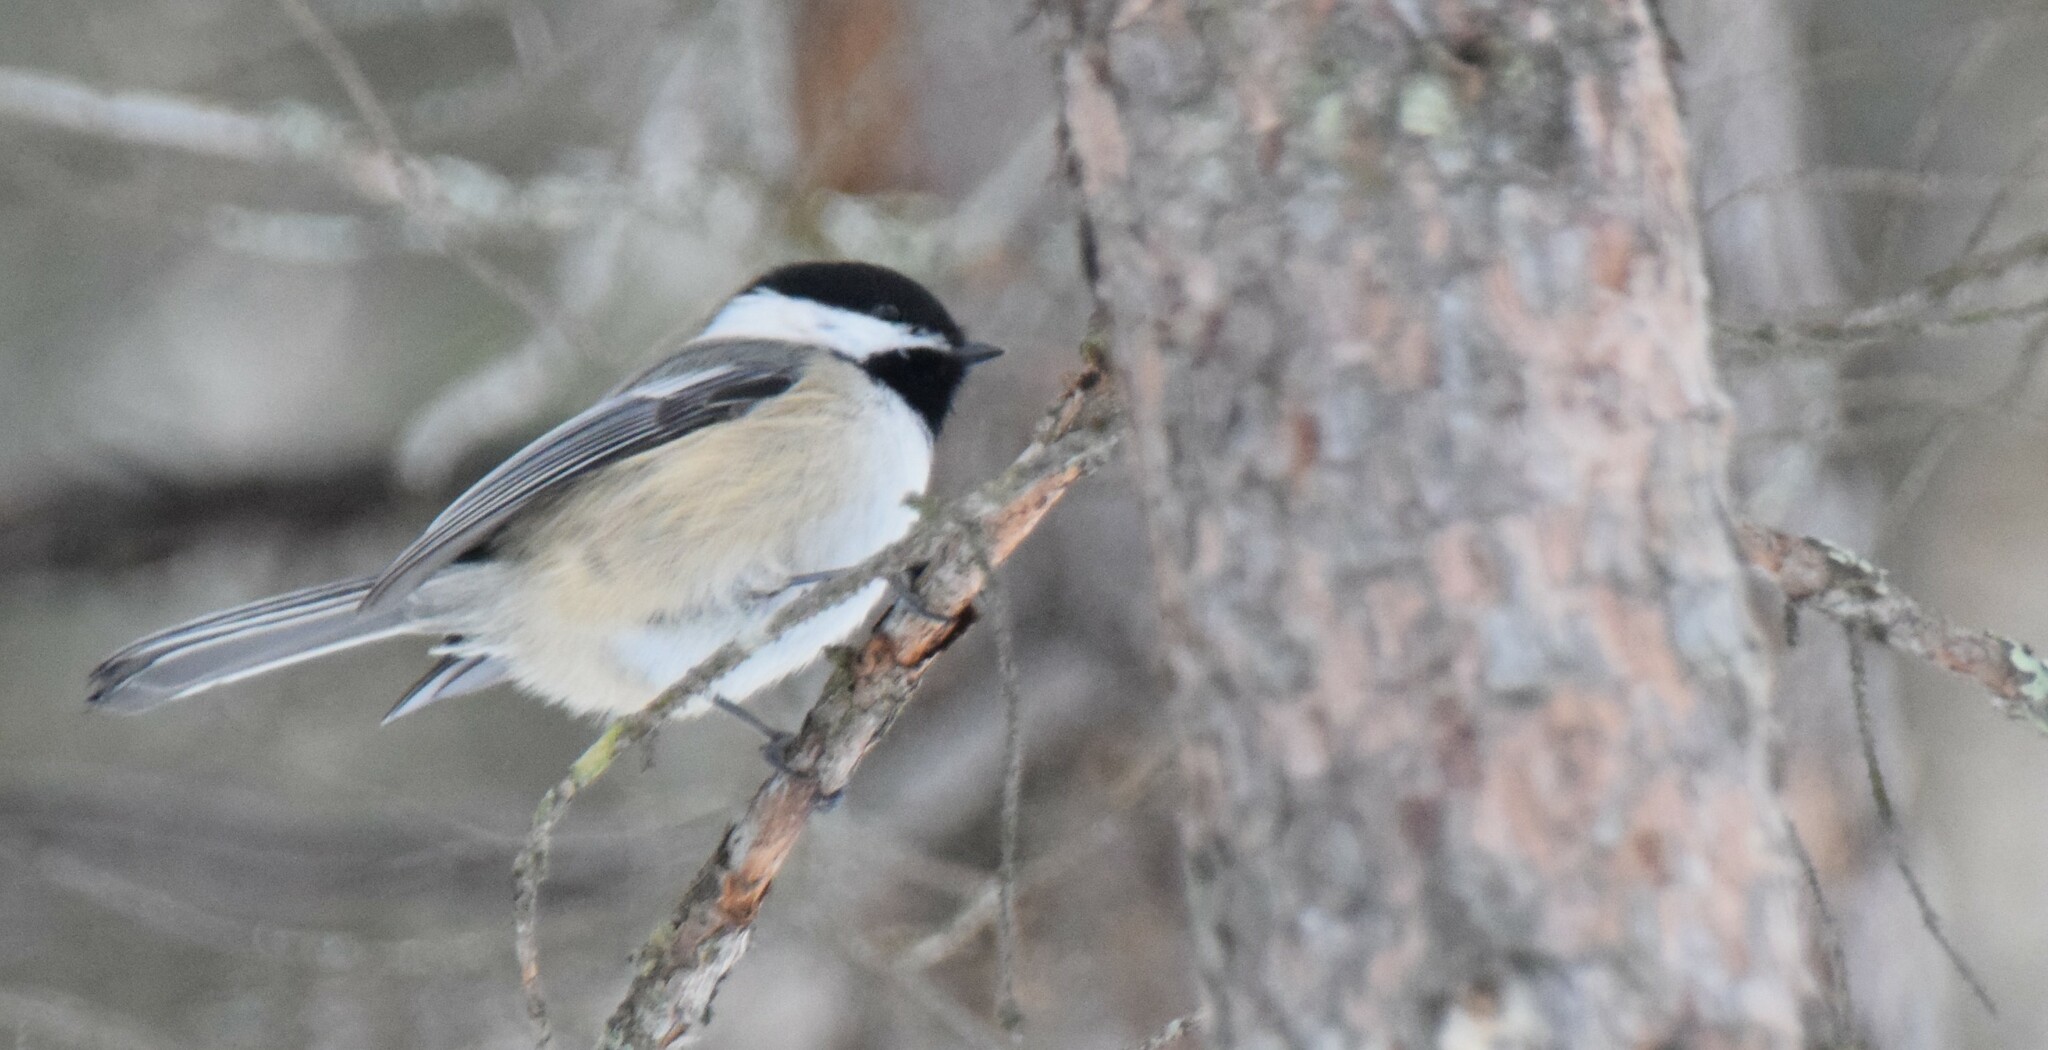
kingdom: Animalia
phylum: Chordata
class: Aves
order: Passeriformes
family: Paridae
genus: Poecile
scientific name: Poecile atricapillus
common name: Black-capped chickadee
